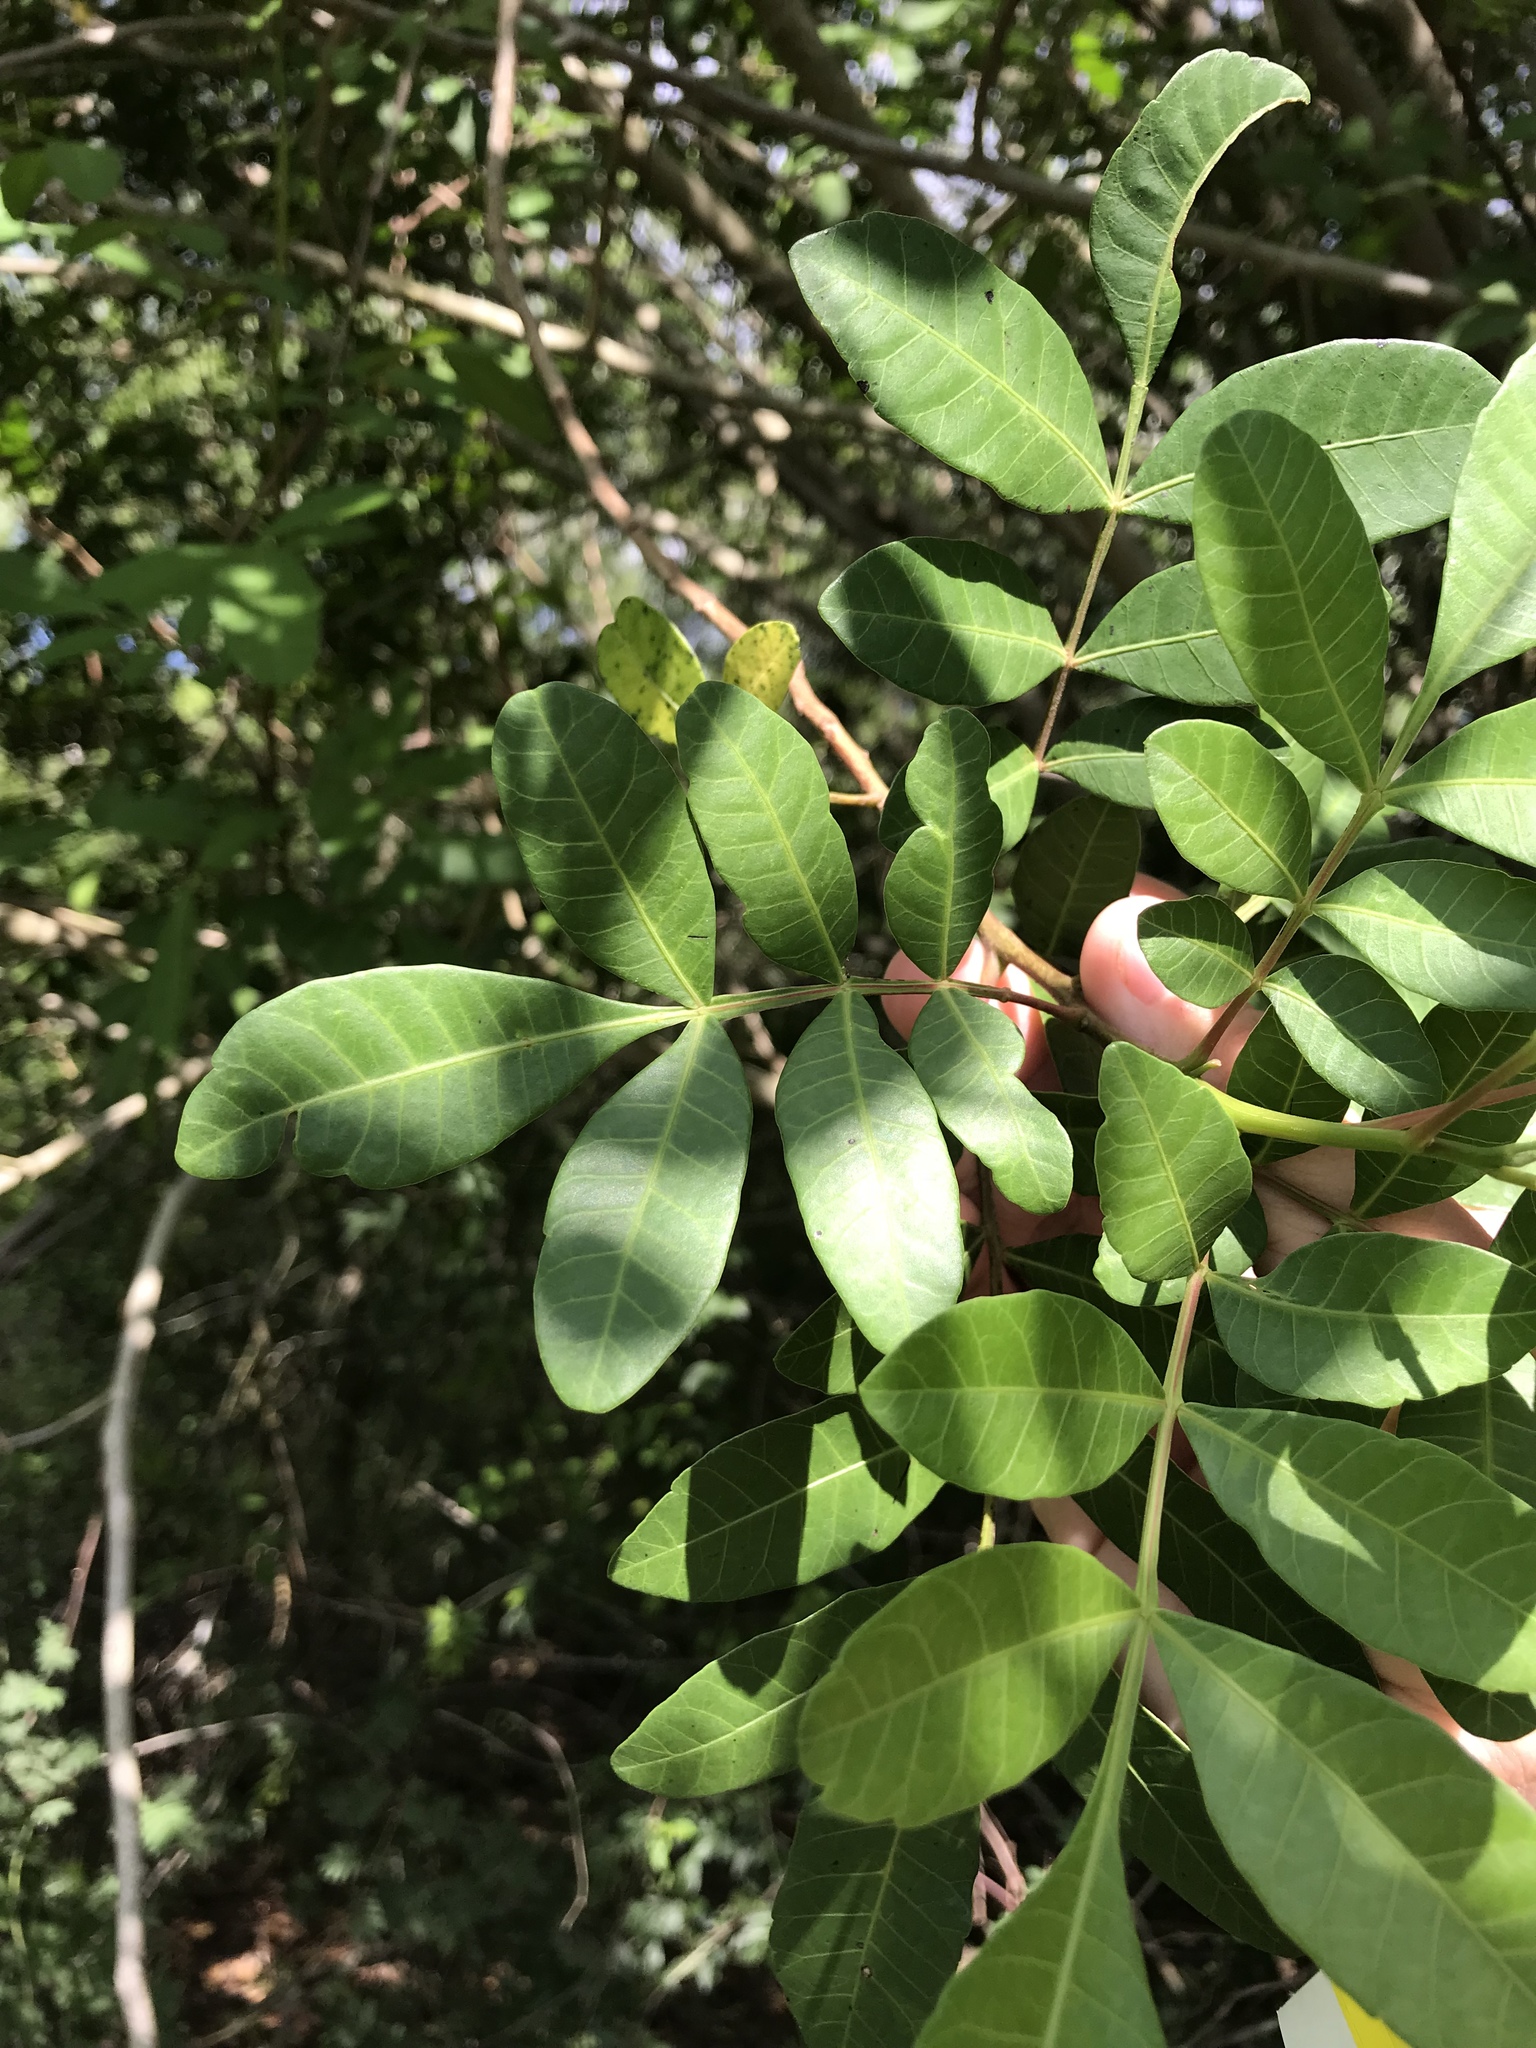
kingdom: Plantae
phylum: Tracheophyta
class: Magnoliopsida
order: Sapindales
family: Anacardiaceae
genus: Schinus
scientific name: Schinus terebinthifolia
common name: Brazilian peppertree
